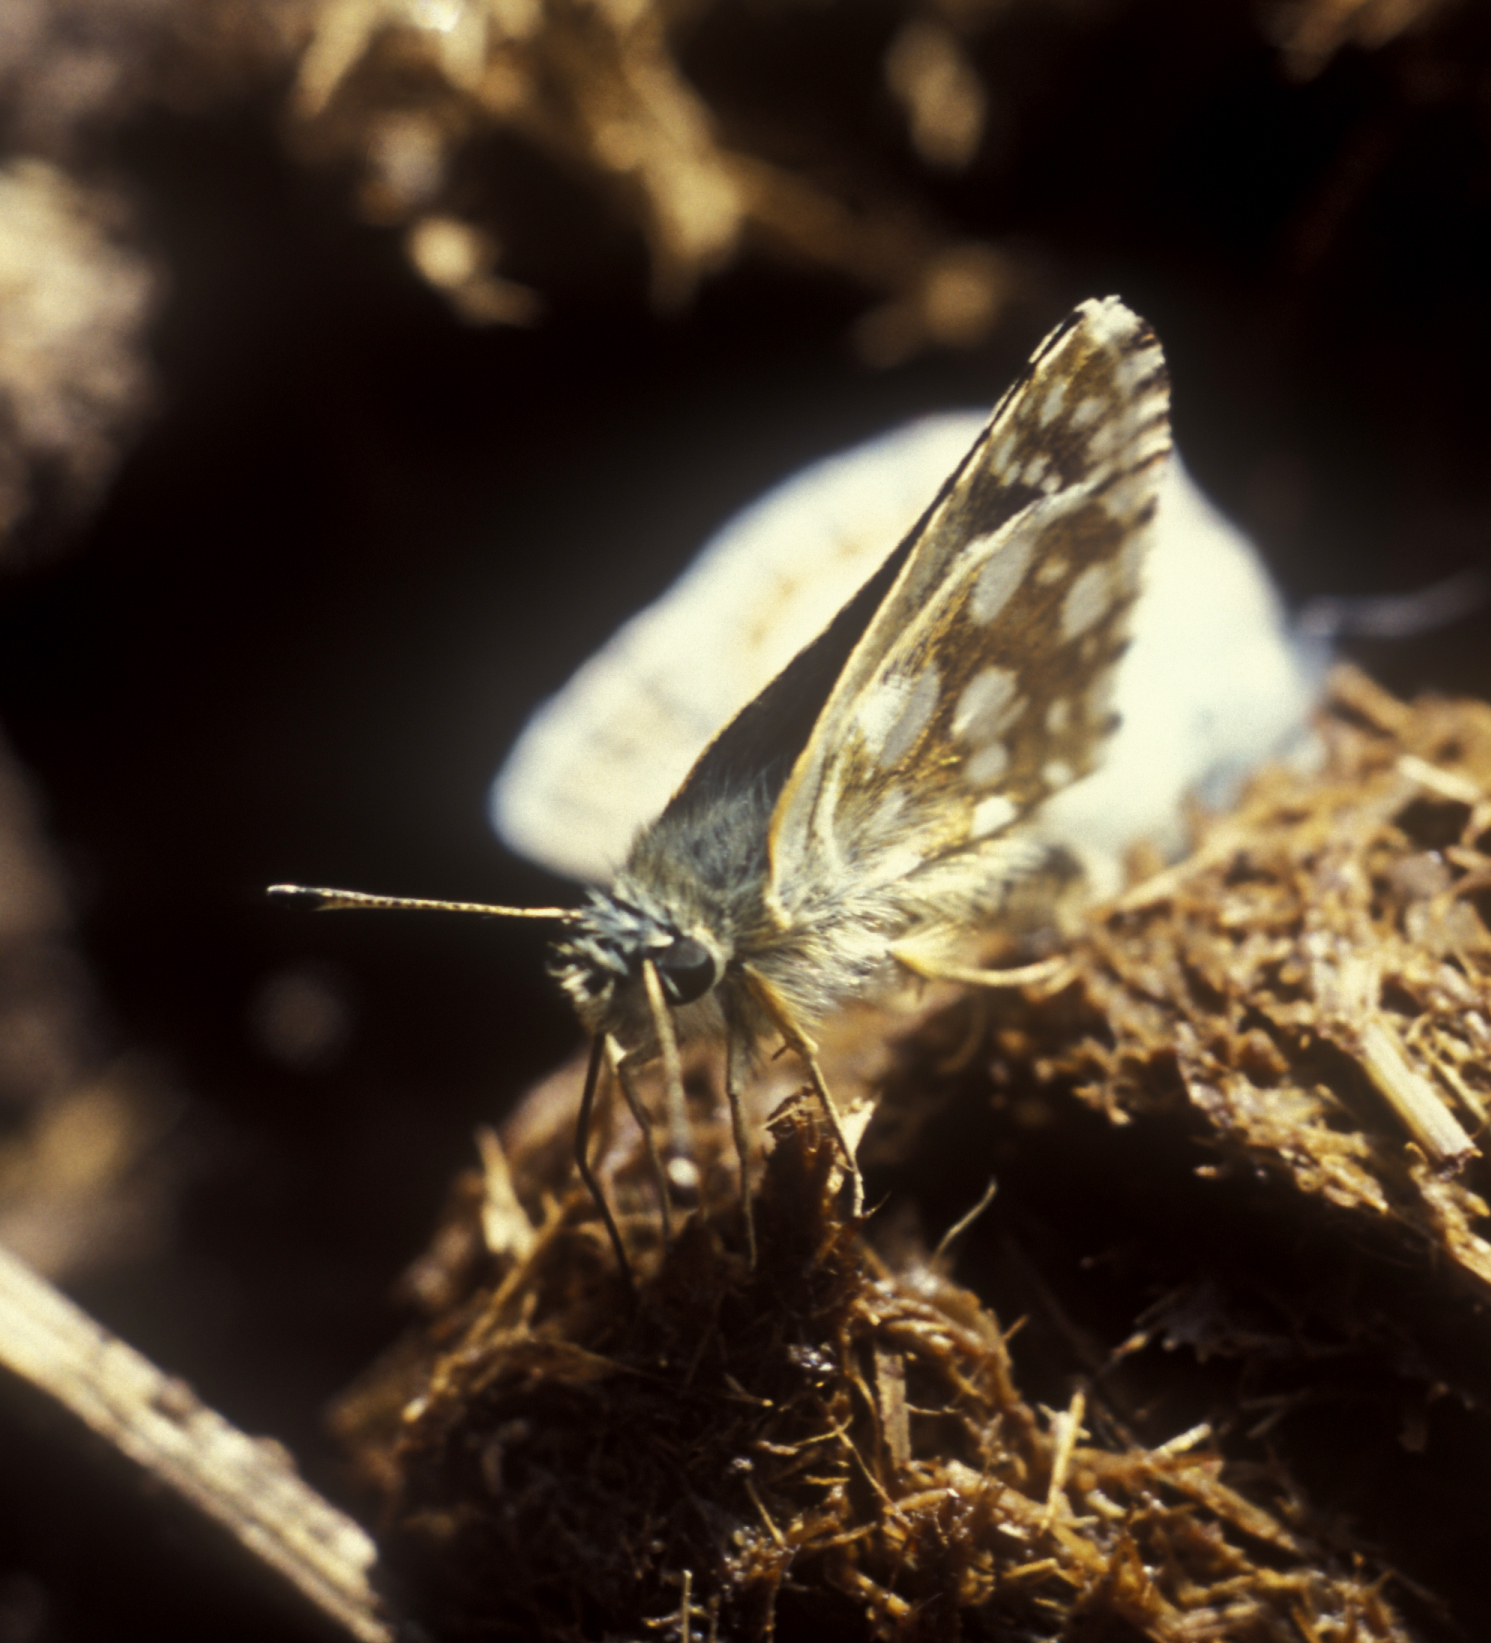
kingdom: Animalia
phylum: Arthropoda
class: Insecta
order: Lepidoptera
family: Hesperiidae
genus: Spialia
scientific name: Spialia sertorius
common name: Red underwing skipper
